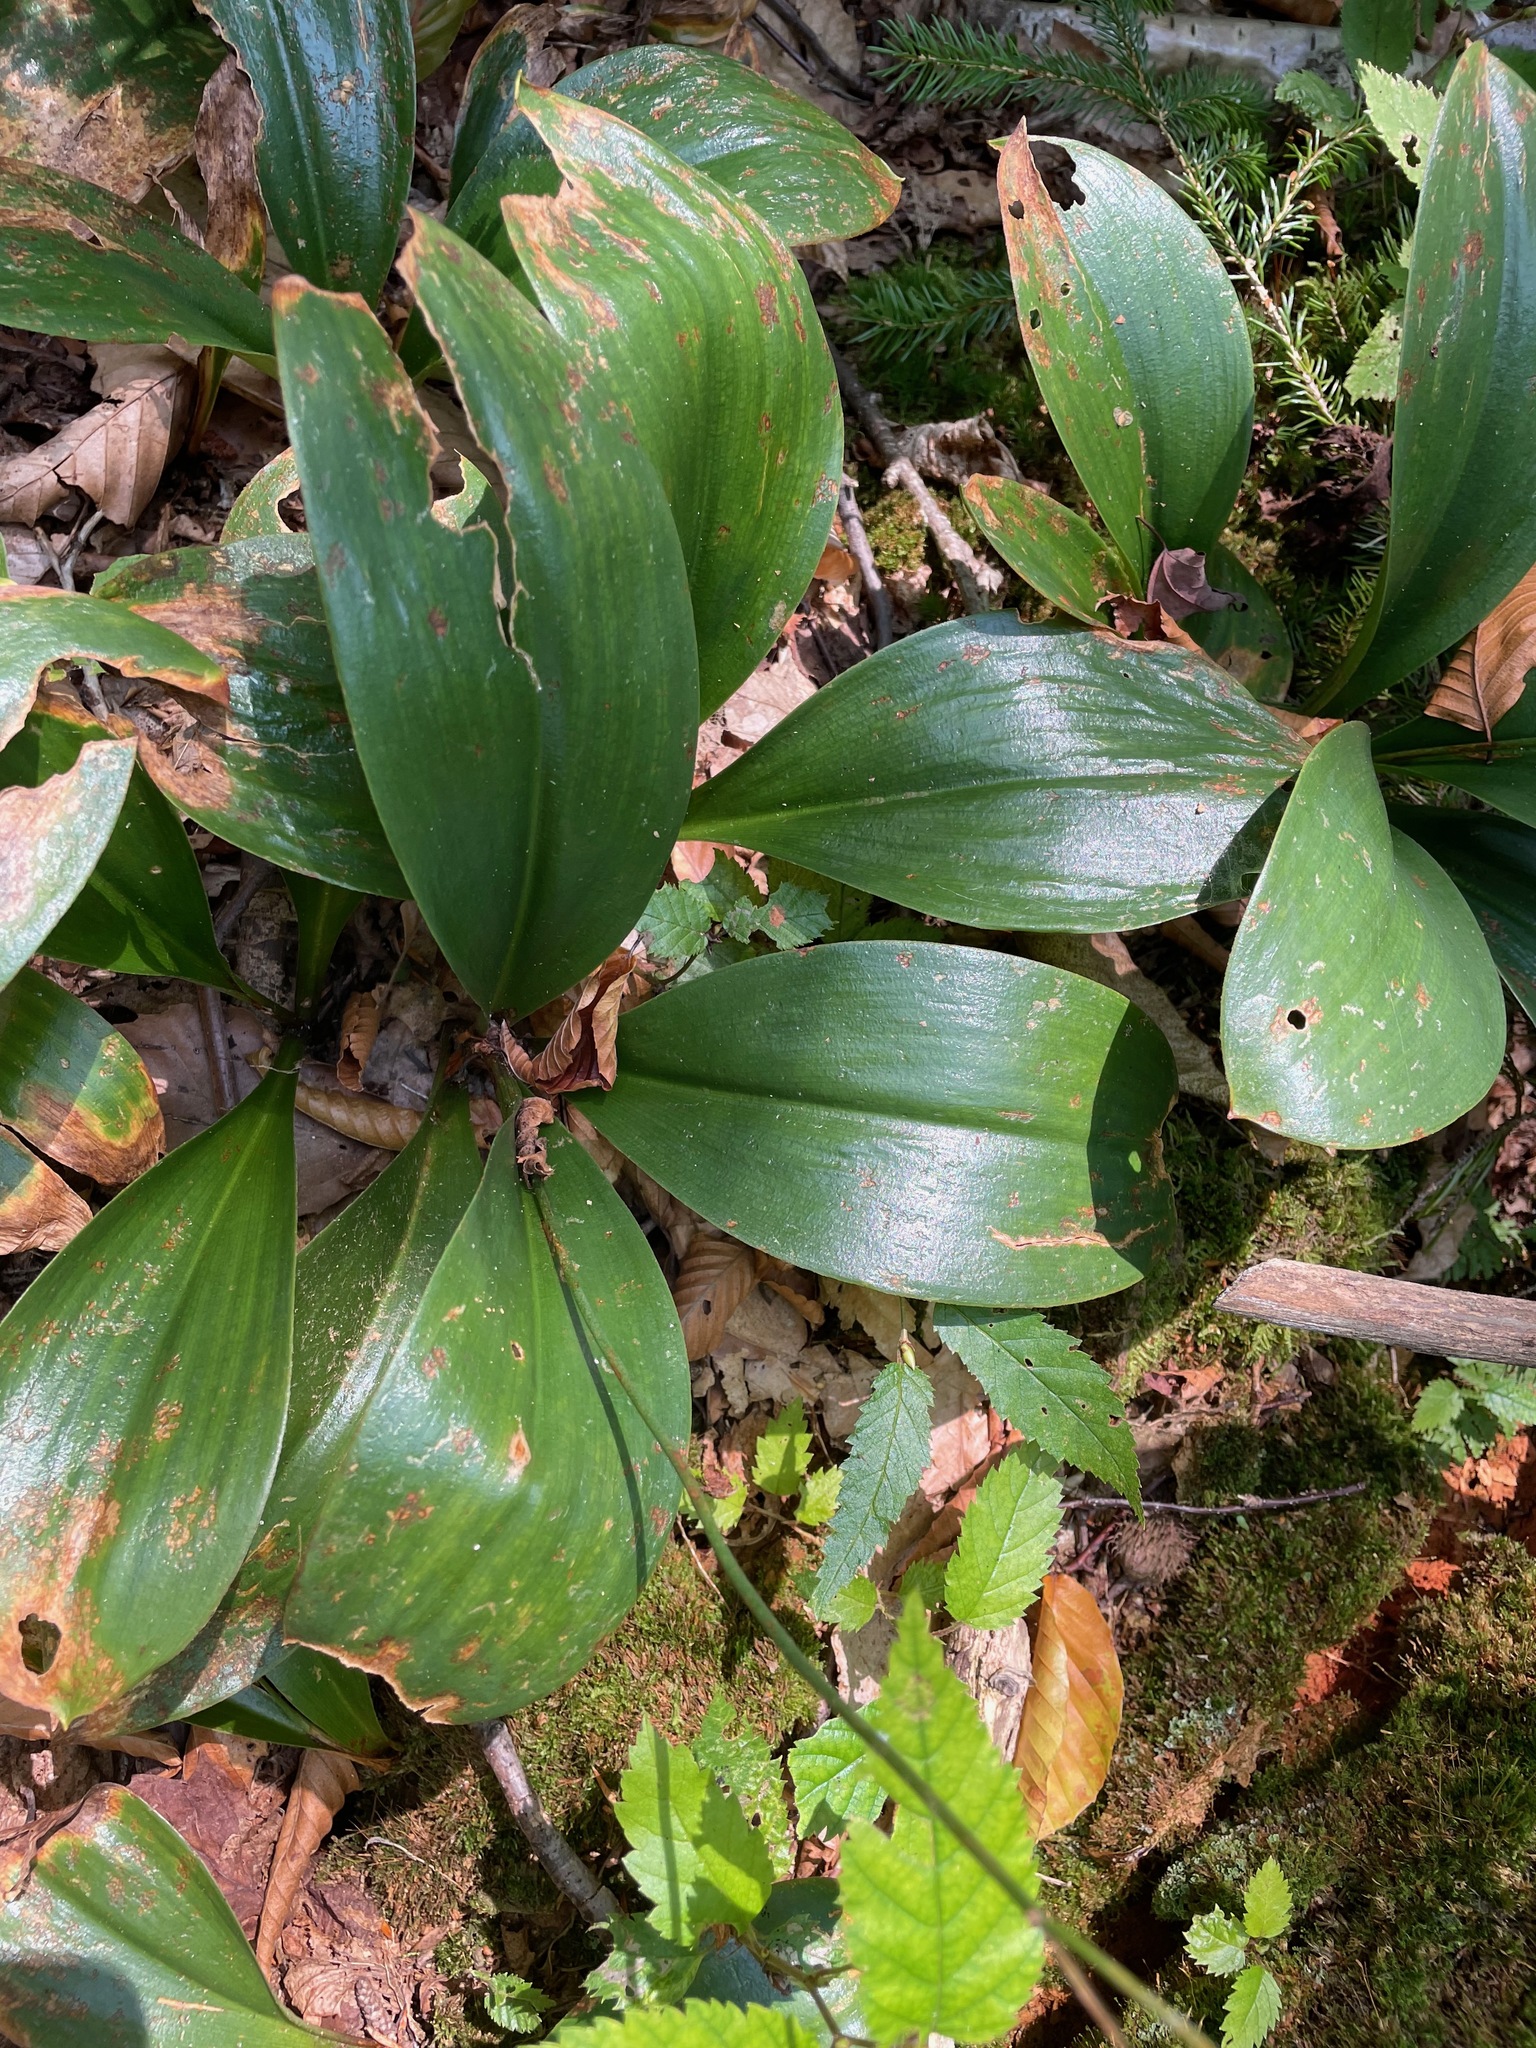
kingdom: Plantae
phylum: Tracheophyta
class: Liliopsida
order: Liliales
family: Liliaceae
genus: Clintonia
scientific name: Clintonia borealis
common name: Yellow clintonia
